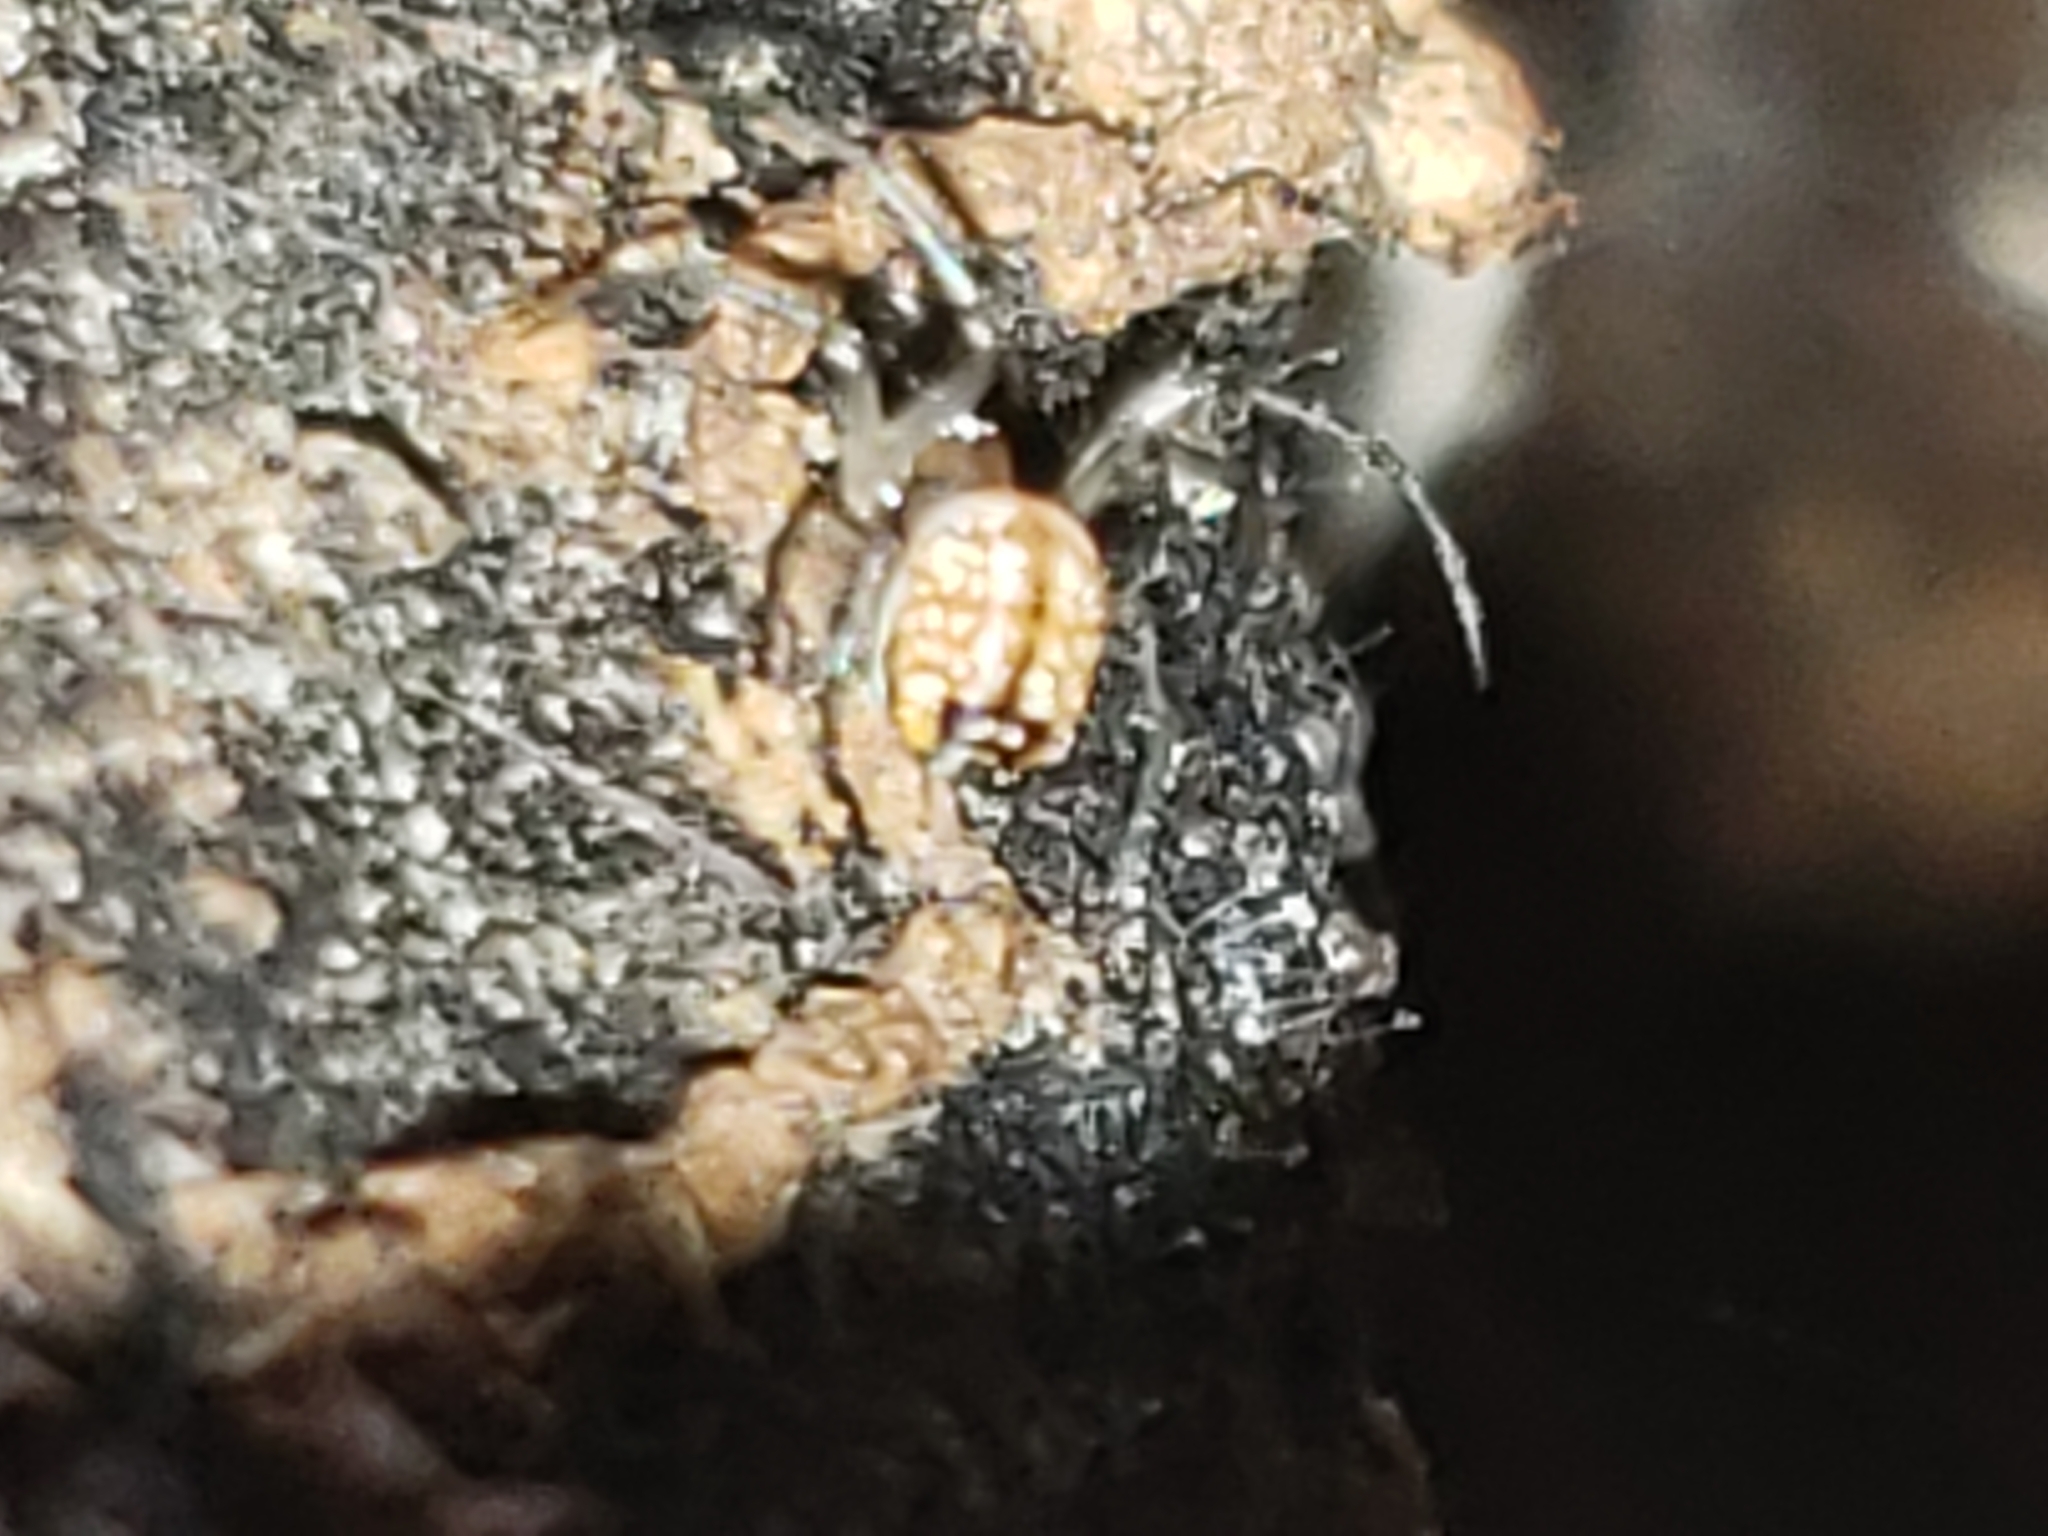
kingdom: Animalia
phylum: Arthropoda
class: Arachnida
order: Araneae
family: Tetragnathidae
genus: Leucauge
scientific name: Leucauge venusta
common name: Longjawed orb weavers
